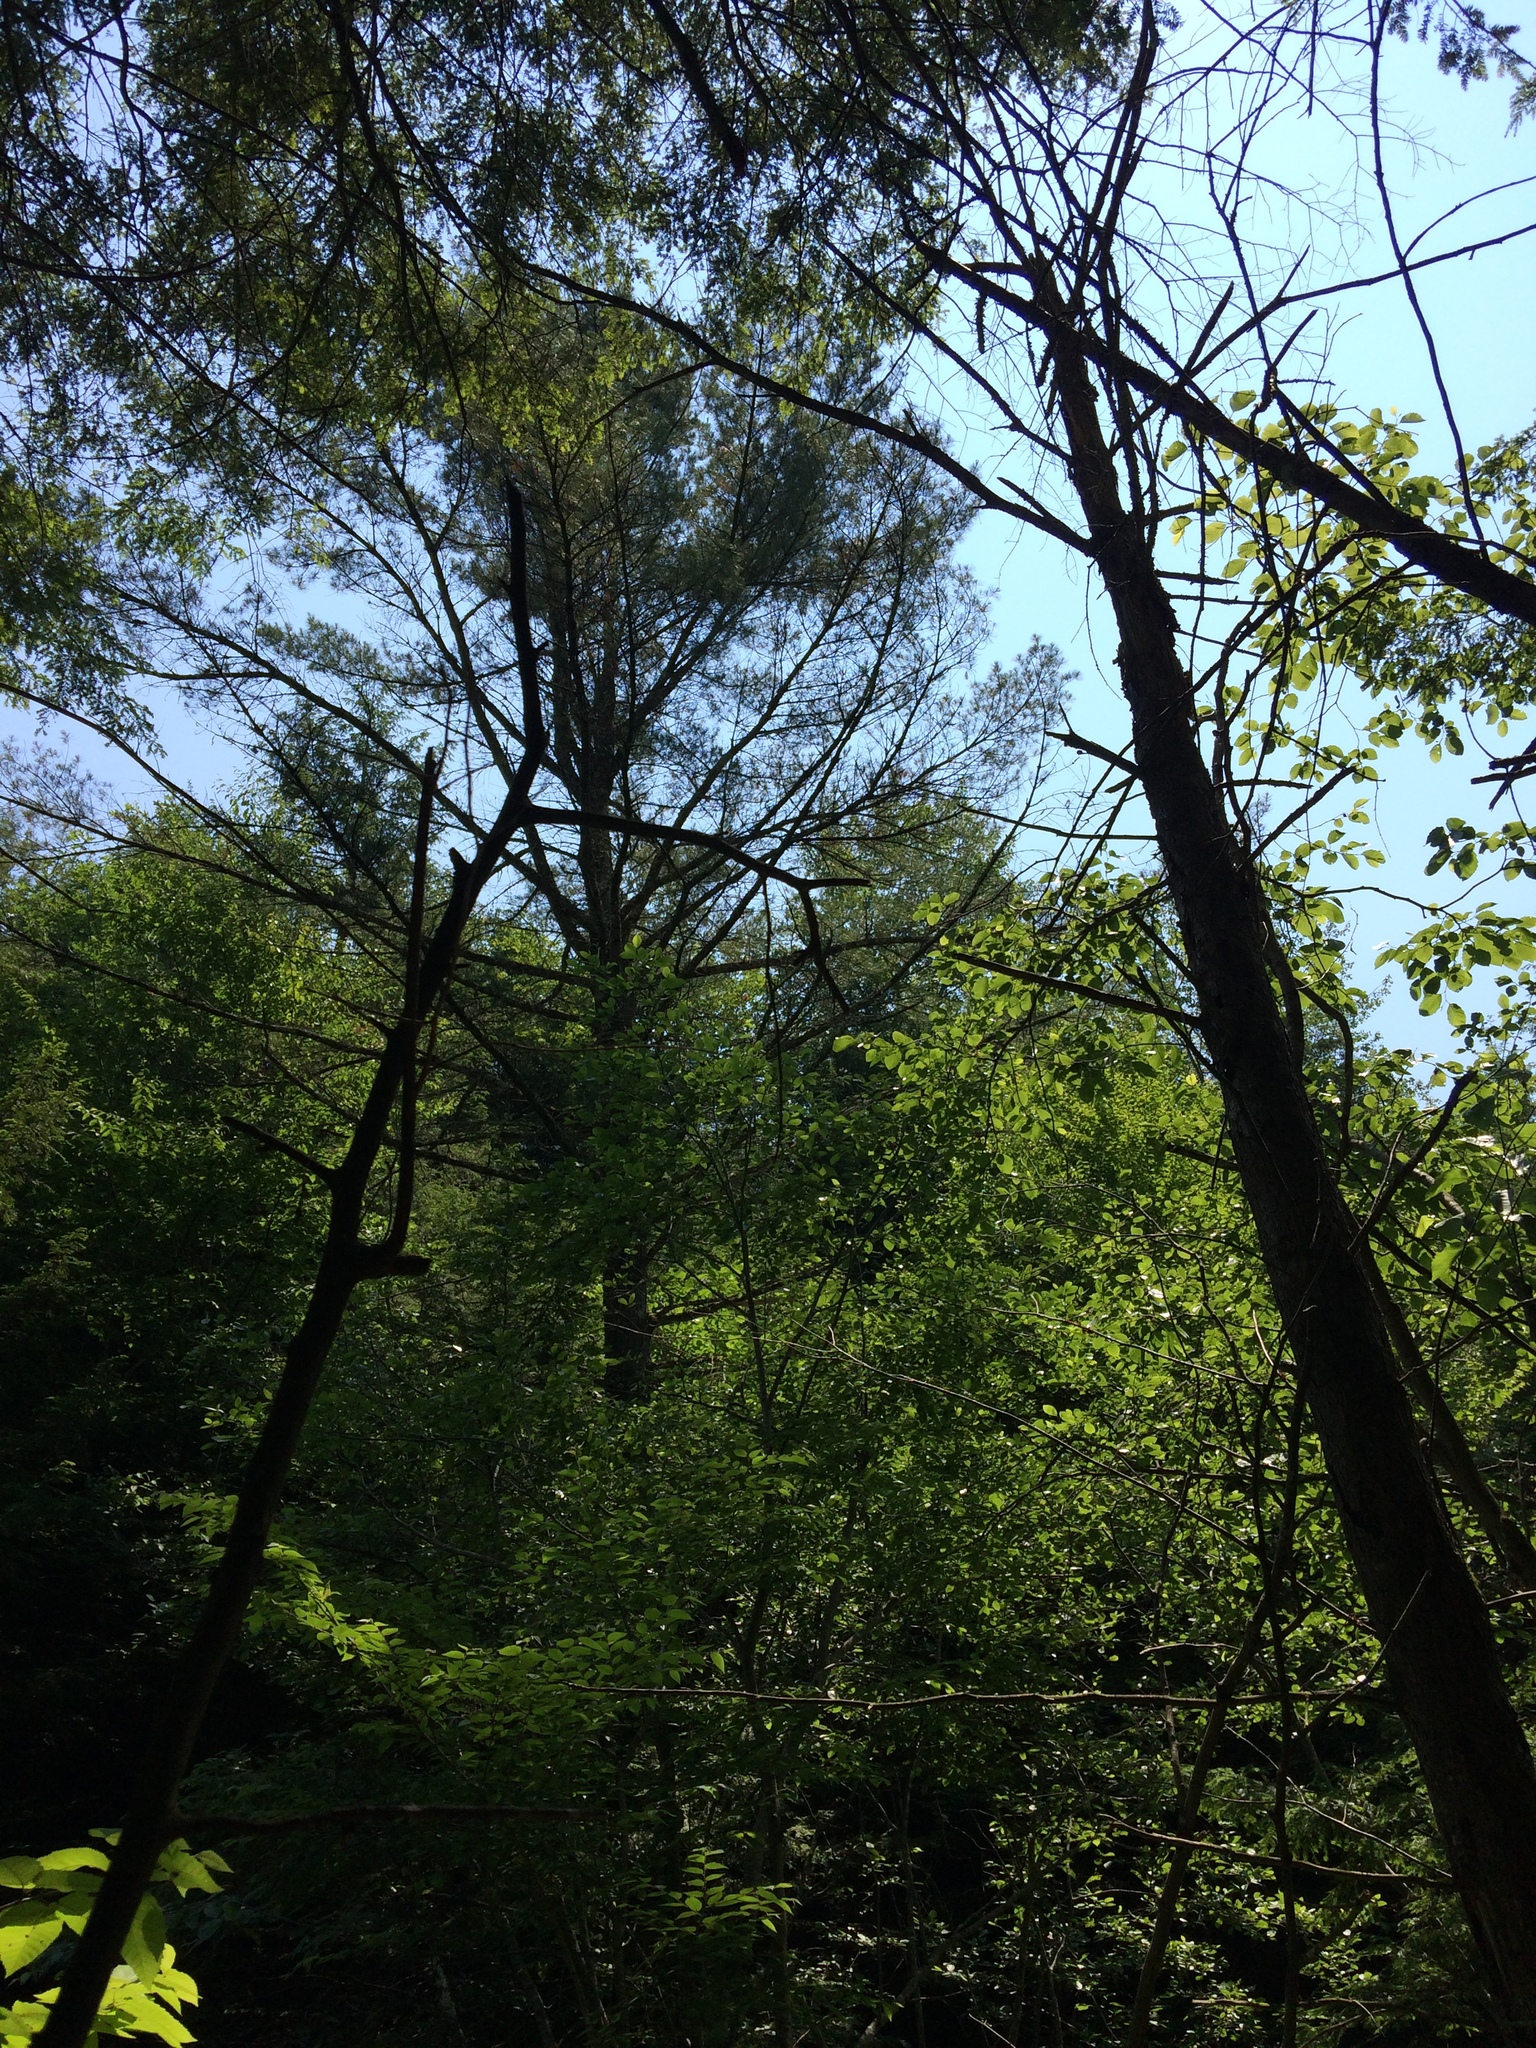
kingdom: Plantae
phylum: Tracheophyta
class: Pinopsida
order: Pinales
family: Pinaceae
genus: Pinus
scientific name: Pinus strobus
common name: Weymouth pine
